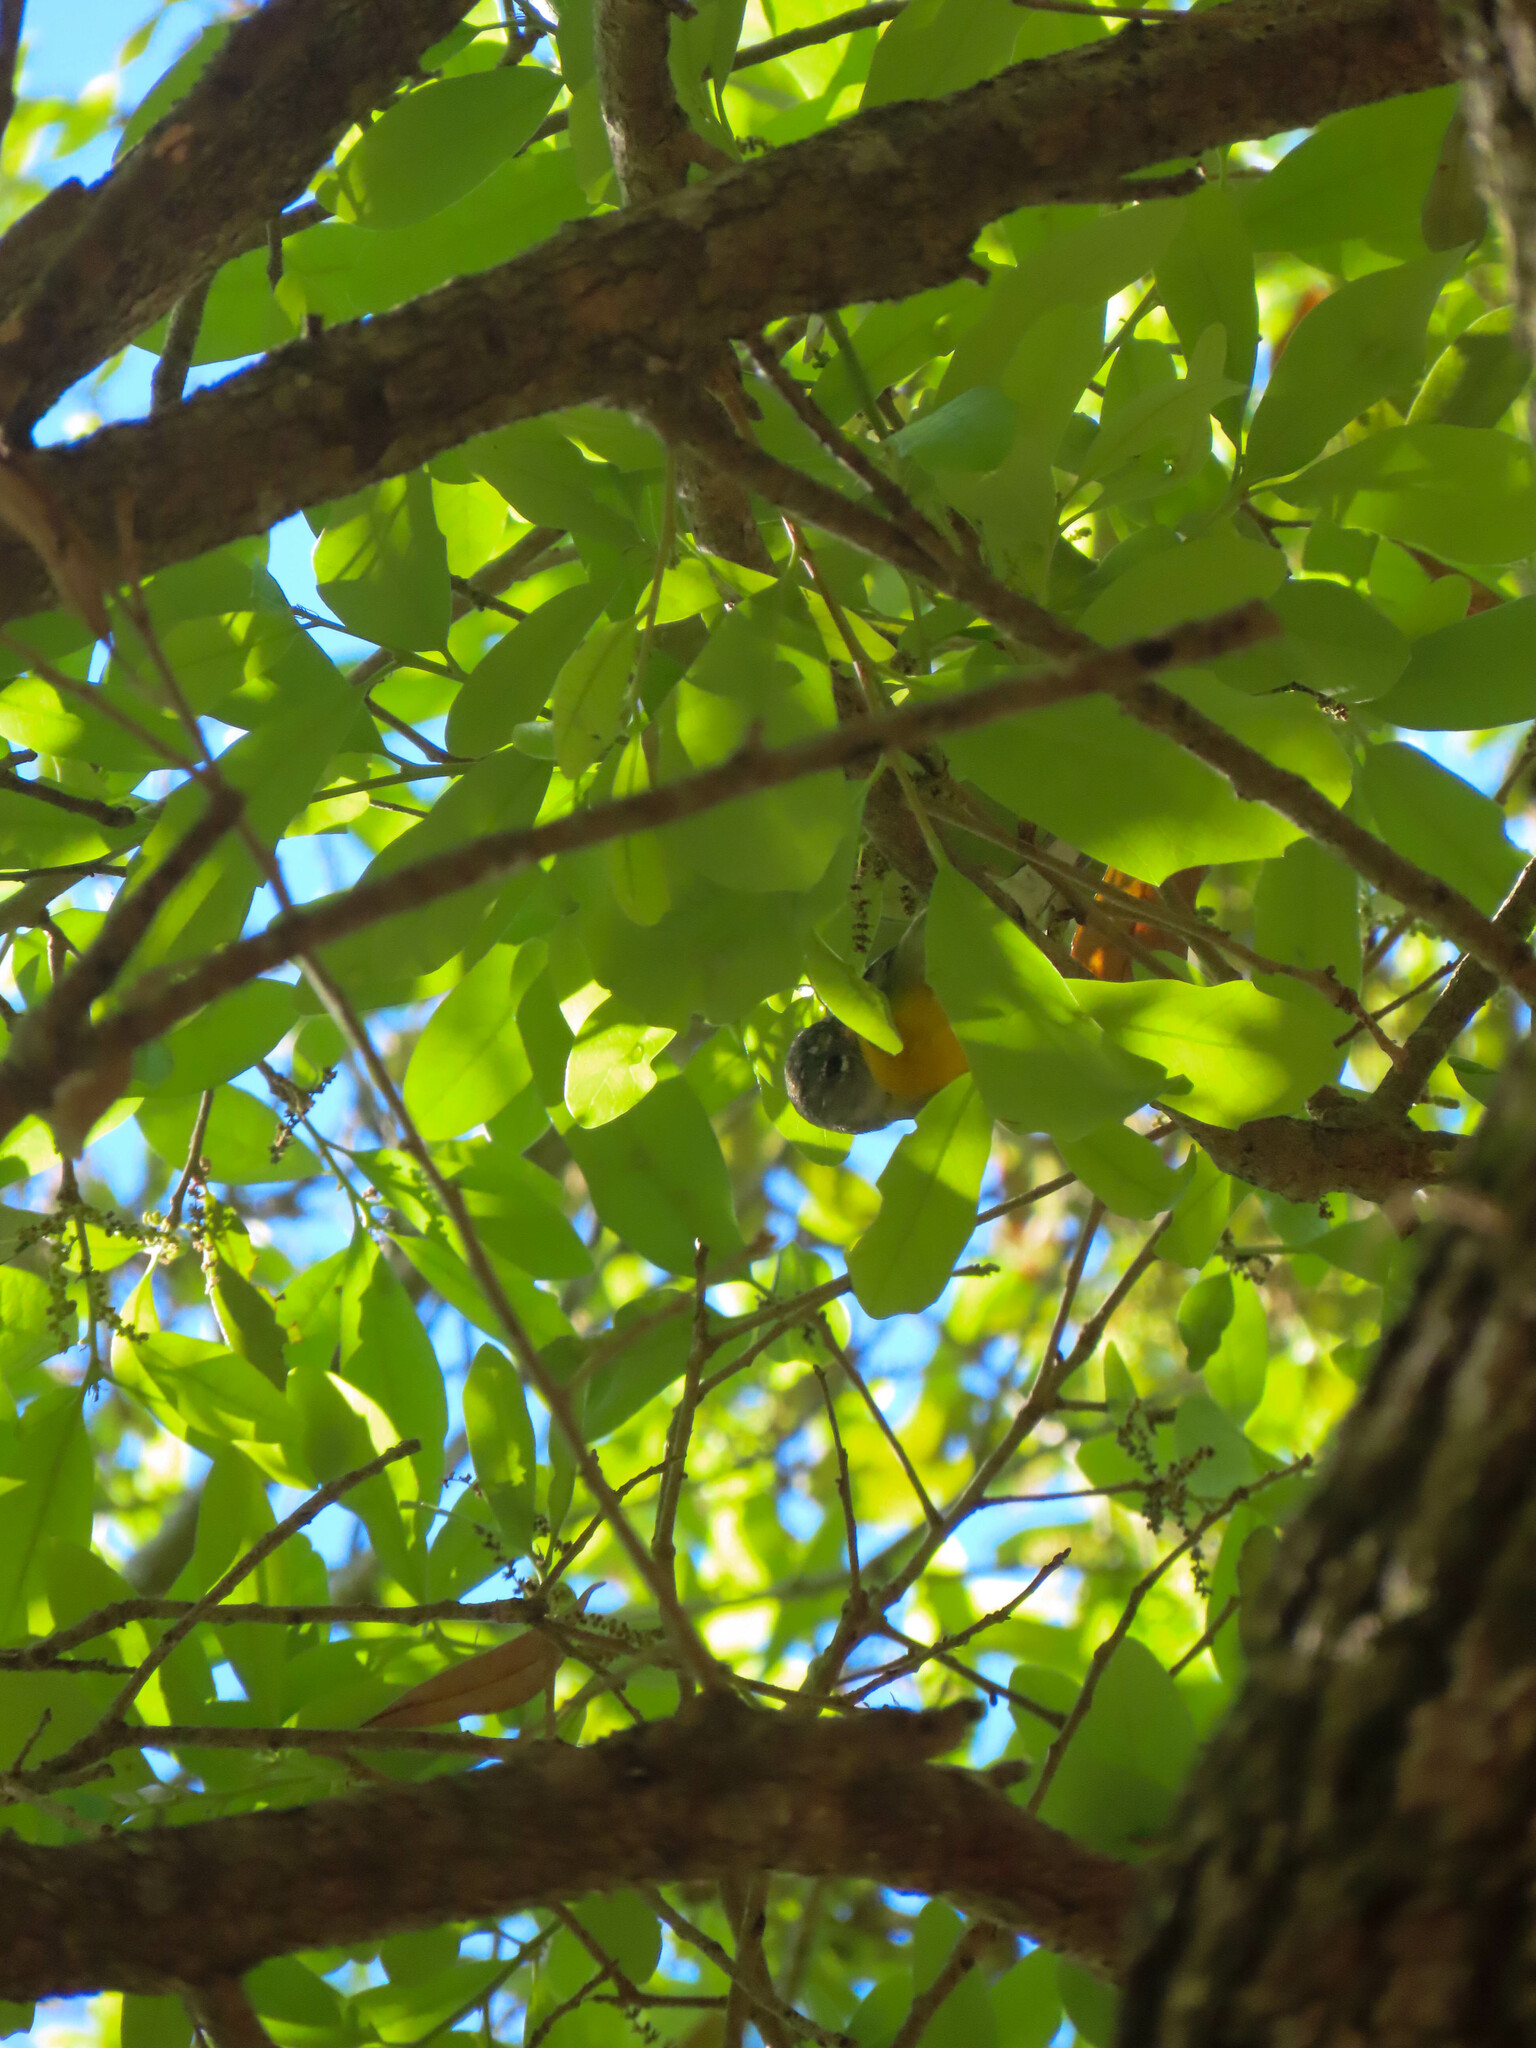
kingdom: Animalia
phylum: Chordata
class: Aves
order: Passeriformes
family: Parulidae
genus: Setophaga
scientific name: Setophaga americana
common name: Northern parula
